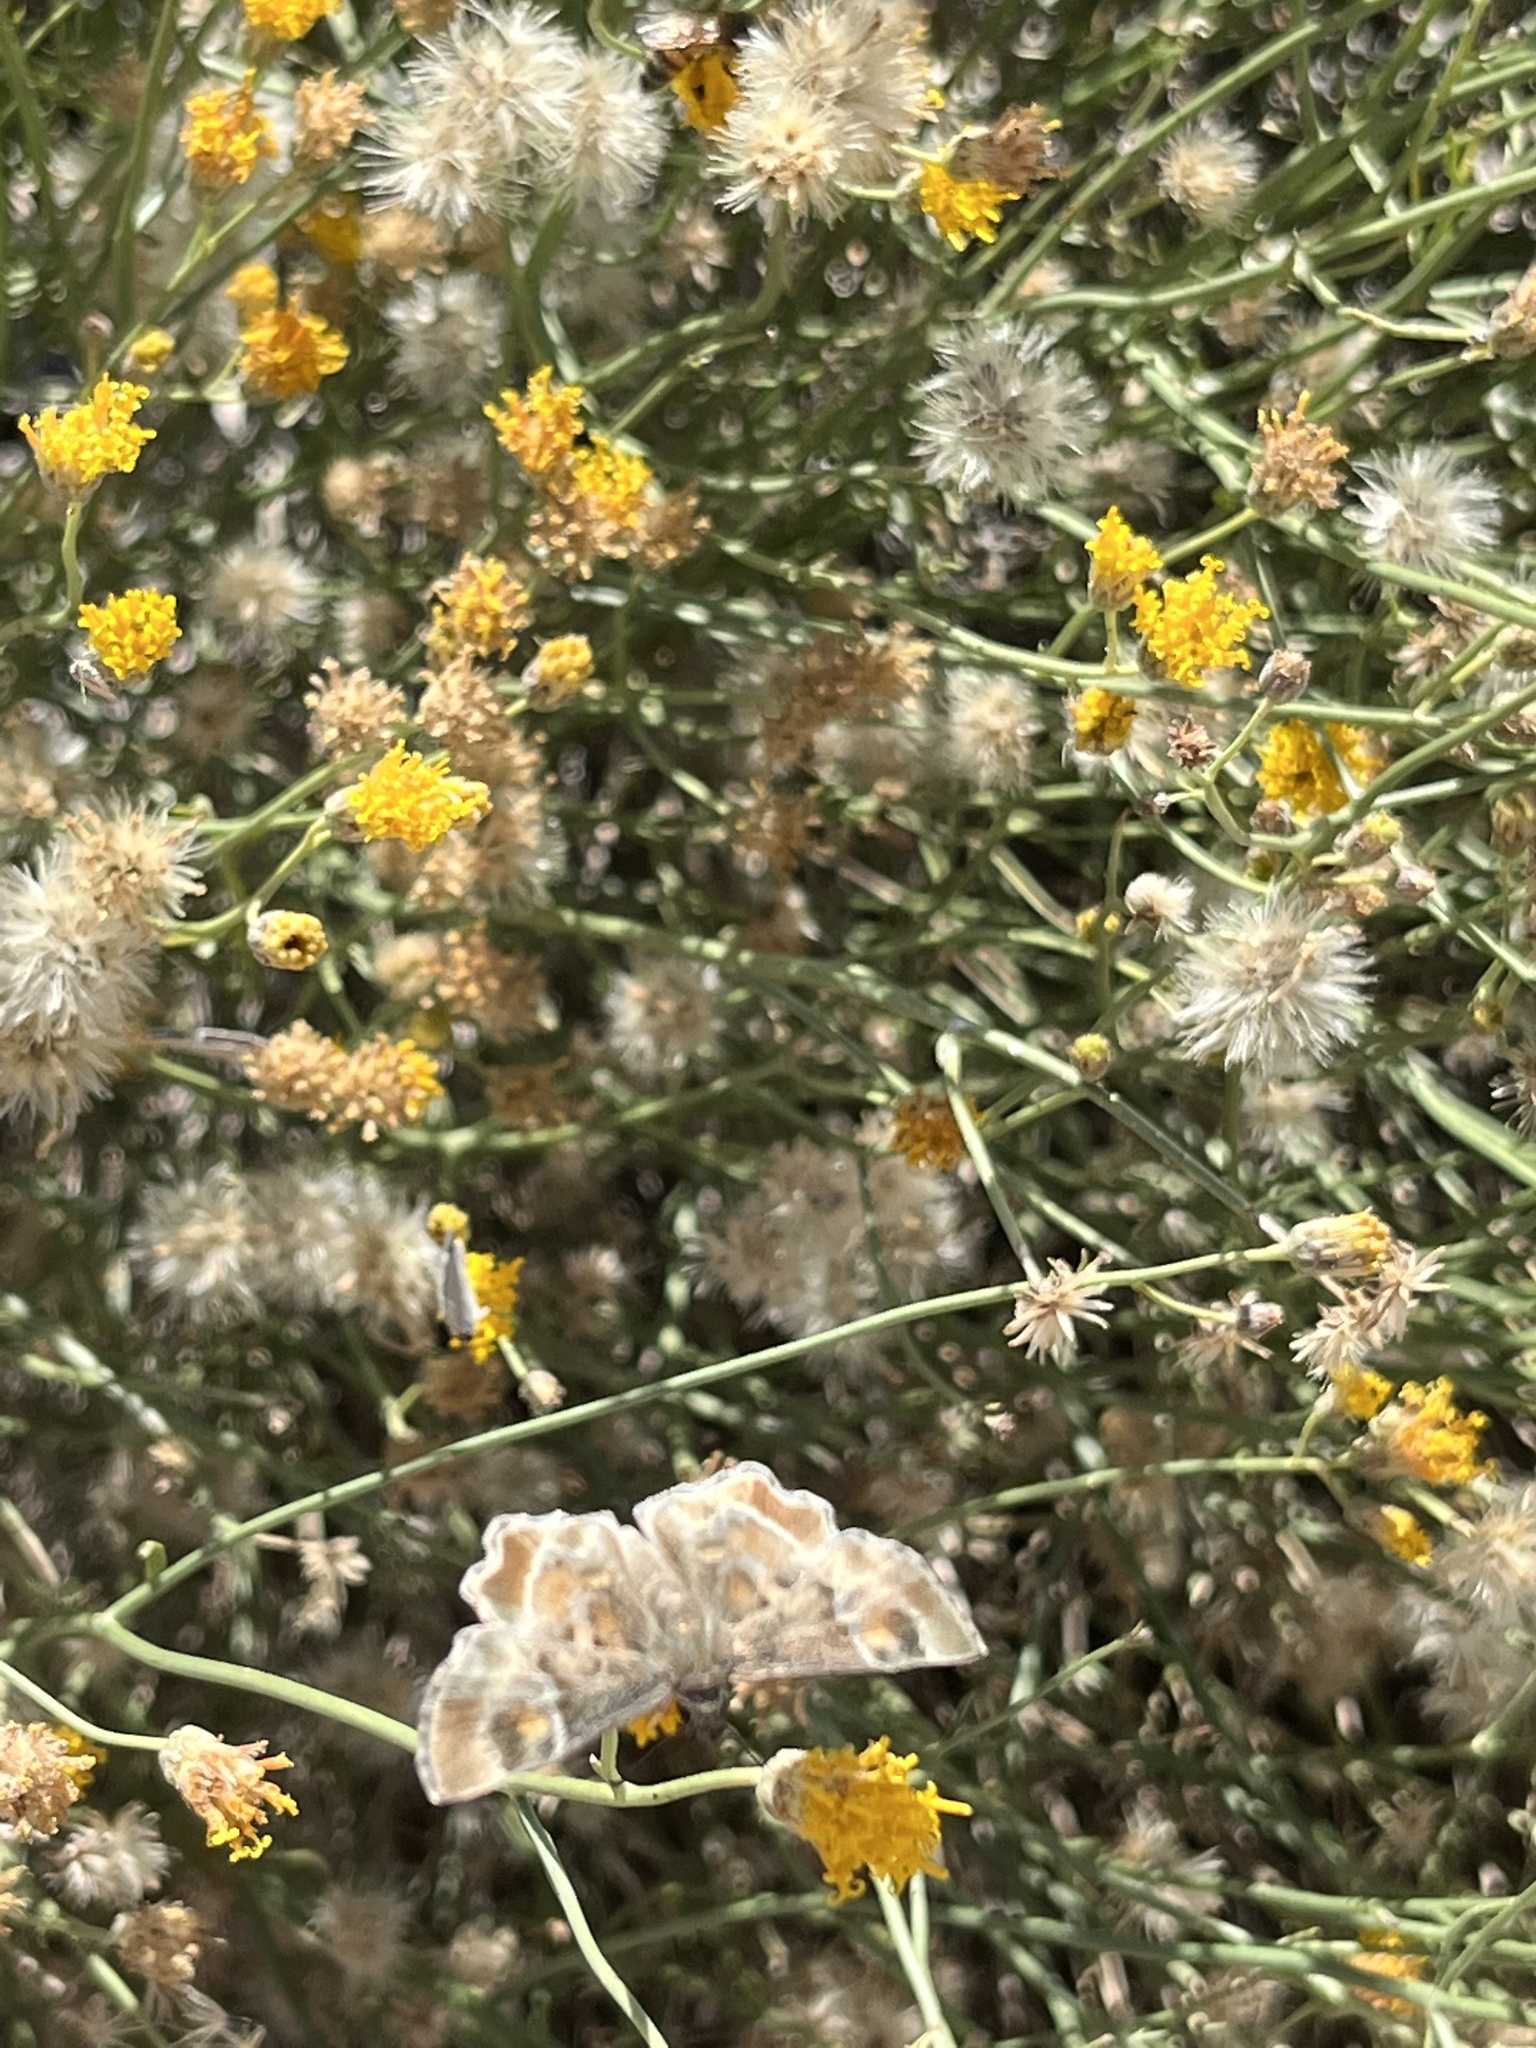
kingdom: Animalia
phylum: Arthropoda
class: Insecta
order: Lepidoptera
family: Hesperiidae
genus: Systasea
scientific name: Systasea zampa
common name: Arizona powdered-skipper
